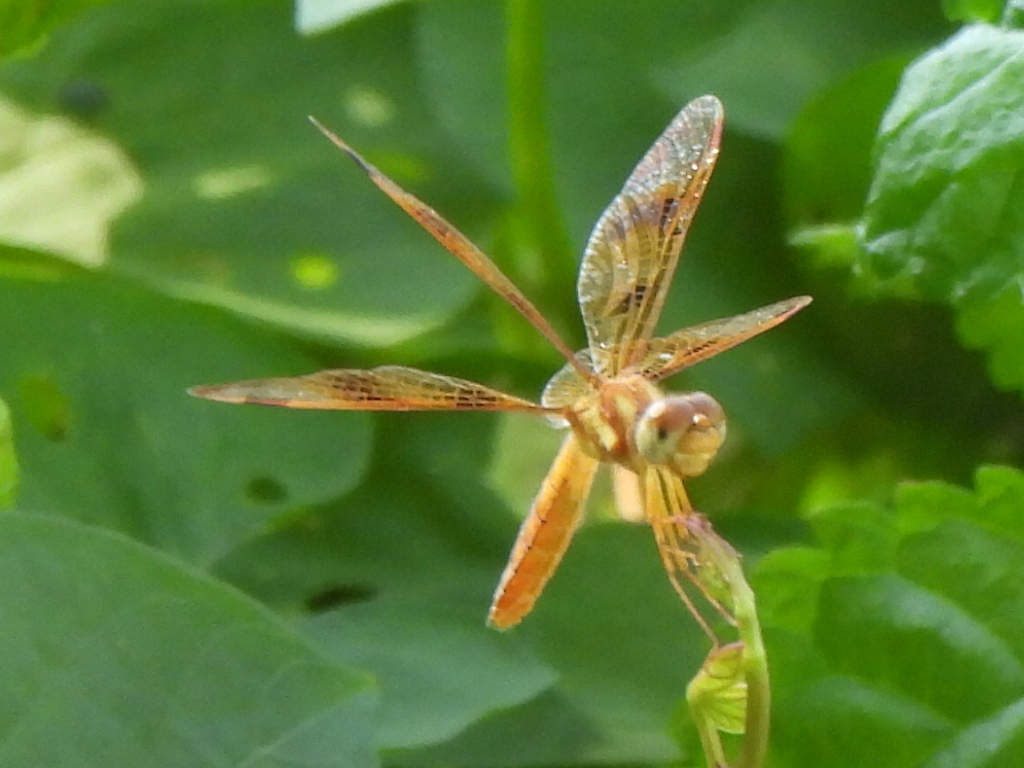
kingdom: Animalia
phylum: Arthropoda
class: Insecta
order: Odonata
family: Libellulidae
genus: Perithemis
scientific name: Perithemis tenera
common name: Eastern amberwing
